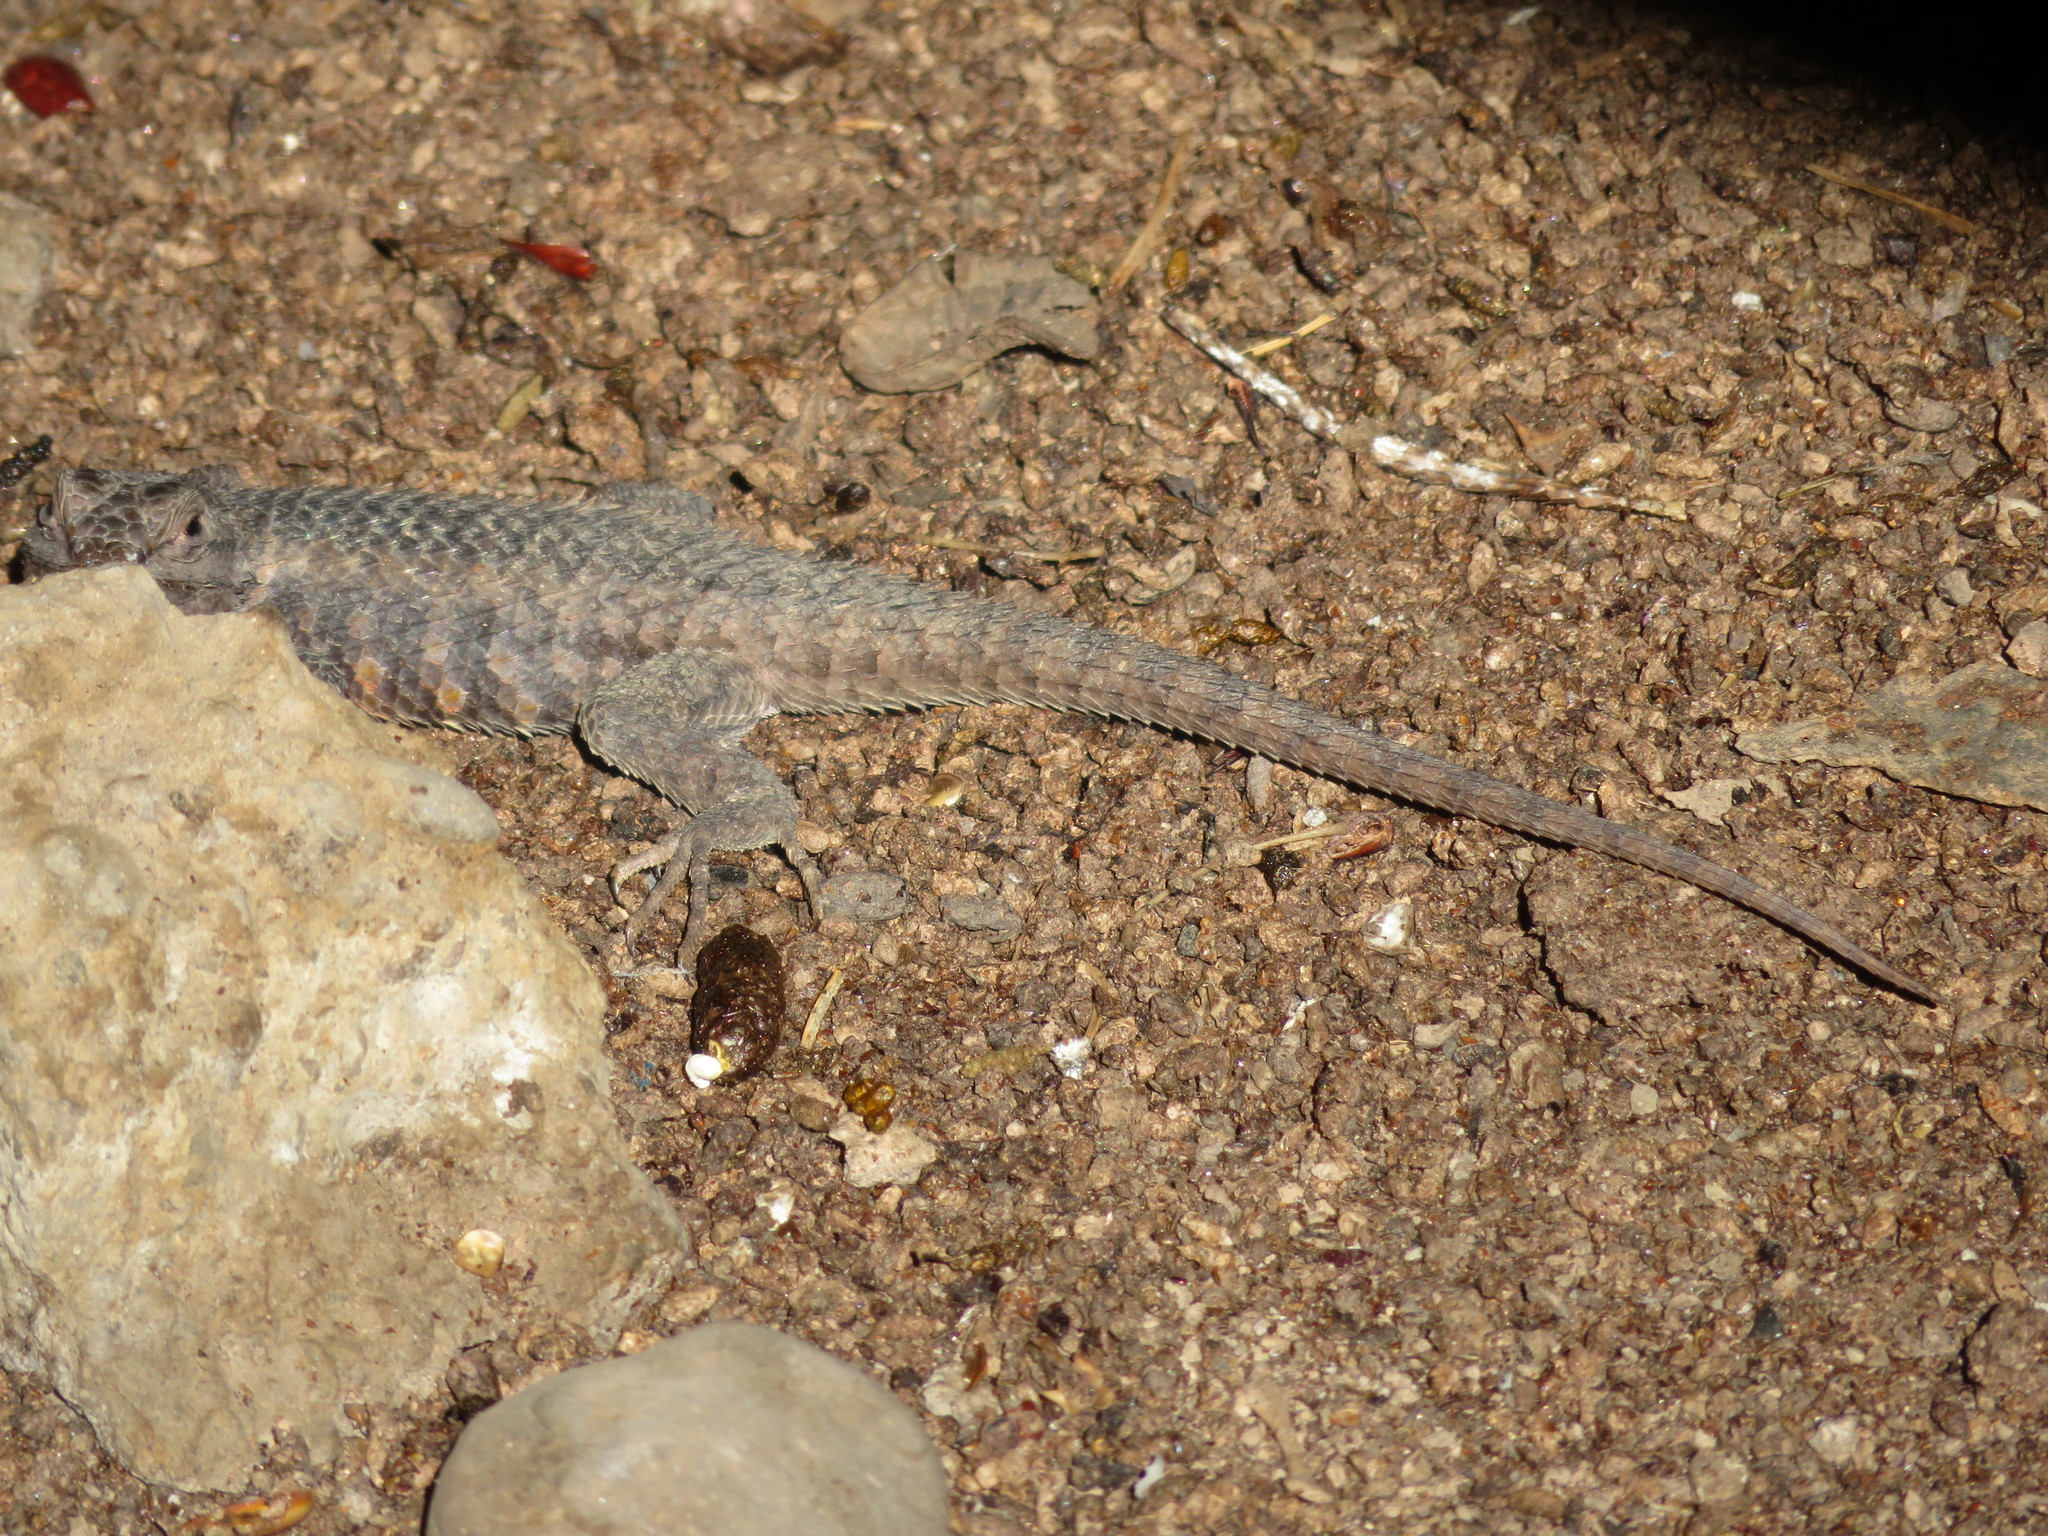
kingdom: Animalia
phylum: Chordata
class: Squamata
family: Phrynosomatidae
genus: Sceloporus
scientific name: Sceloporus magister
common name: Desert spiny lizard
